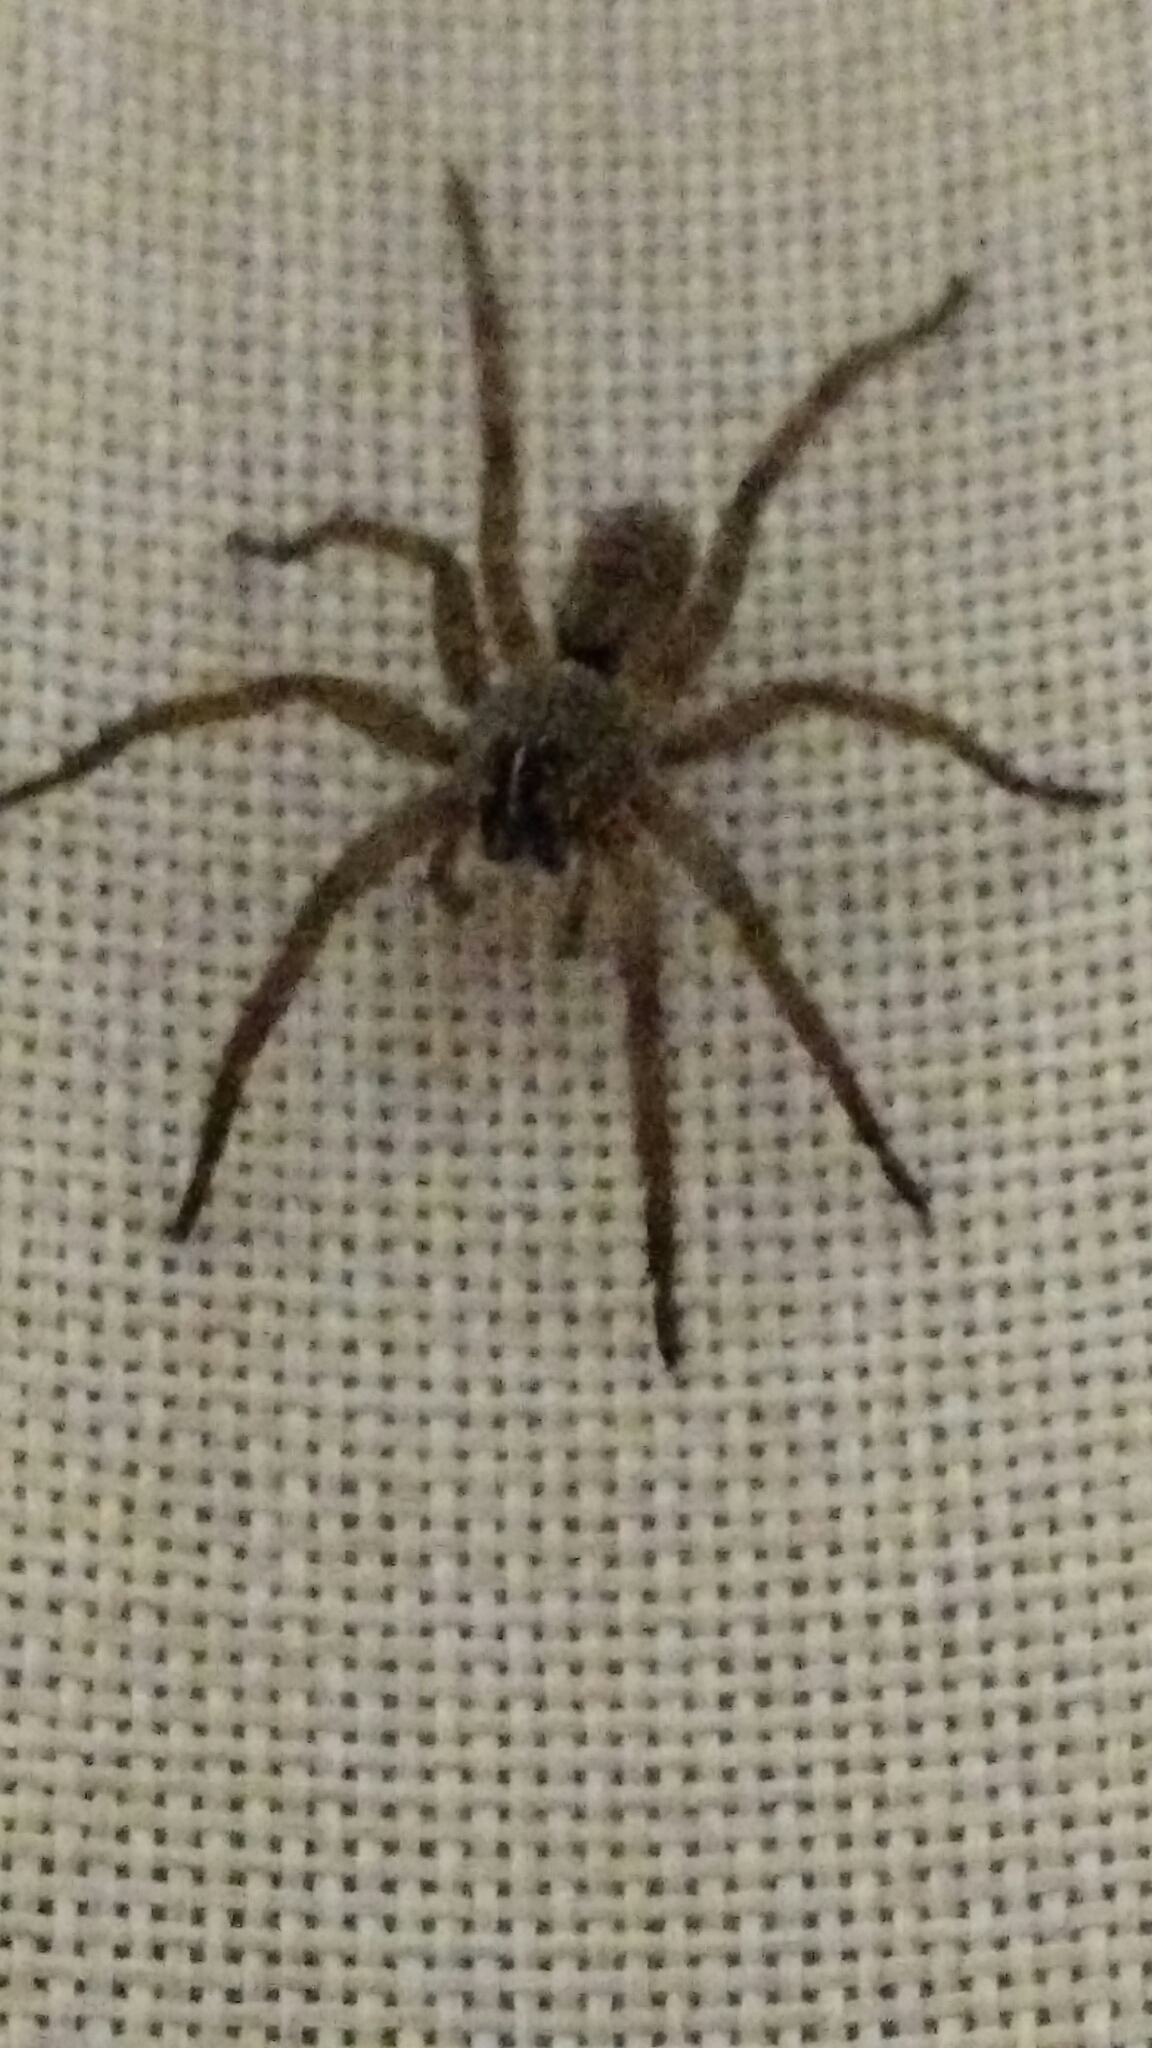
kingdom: Animalia
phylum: Arthropoda
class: Arachnida
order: Araneae
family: Lycosidae
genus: Tigrosa
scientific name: Tigrosa grandis
